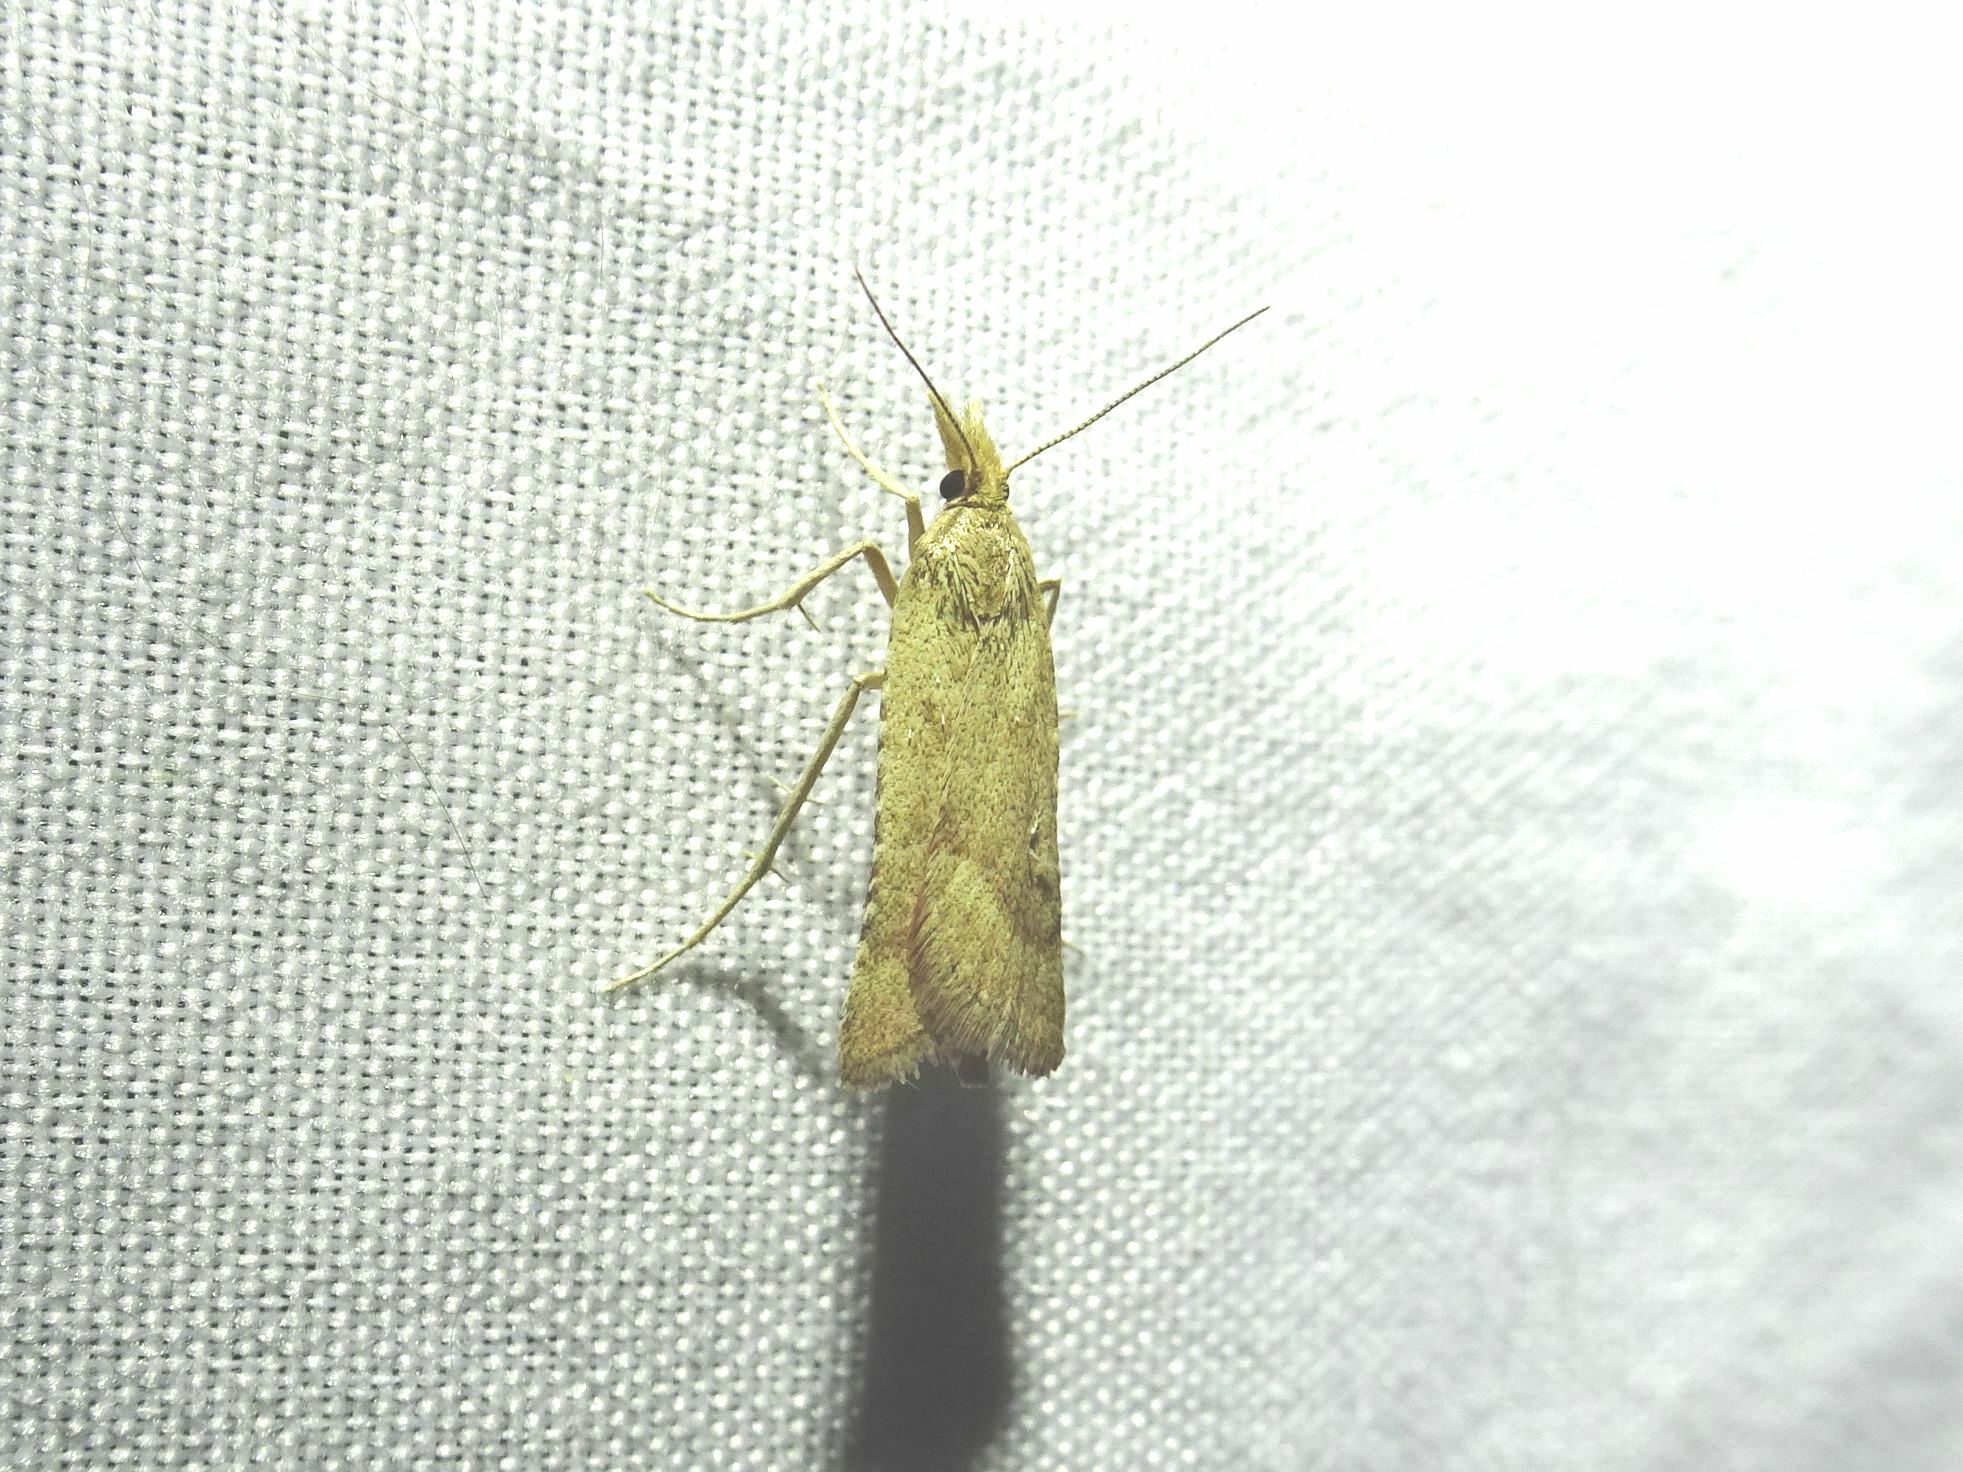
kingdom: Animalia
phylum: Arthropoda
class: Insecta
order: Lepidoptera
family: Pyralidae
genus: Synaphe
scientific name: Synaphe punctalis
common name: Long-legged tabby
